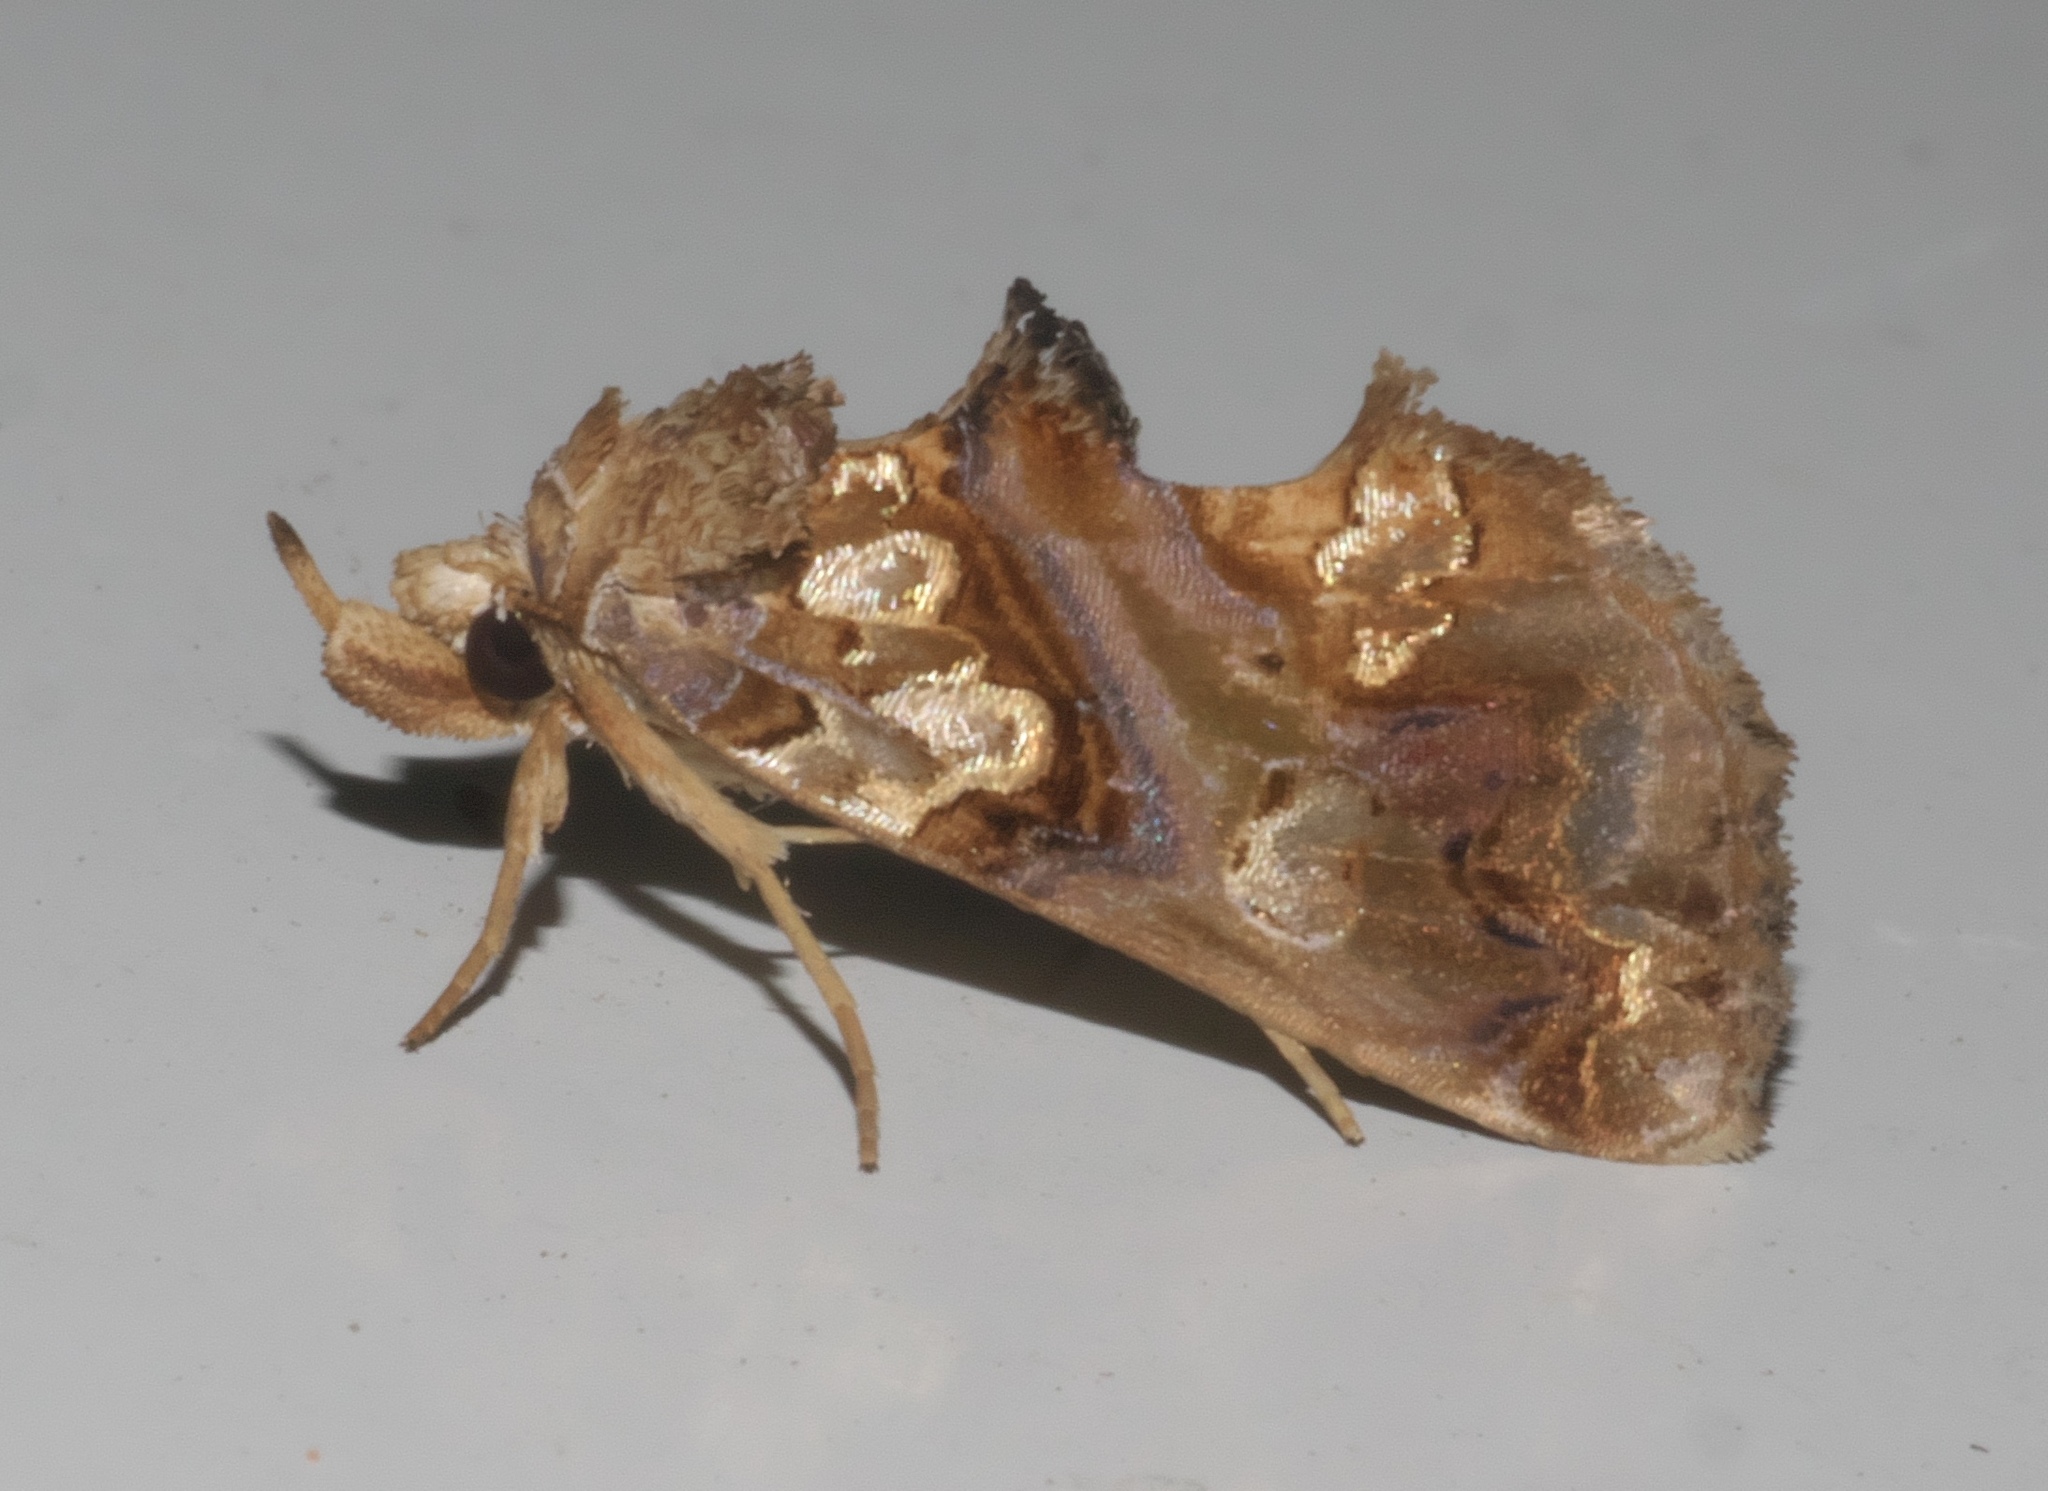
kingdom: Animalia
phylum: Arthropoda
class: Insecta
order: Lepidoptera
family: Erebidae
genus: Plusiodonta
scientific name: Plusiodonta compressipalpis
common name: Moonseed moth
